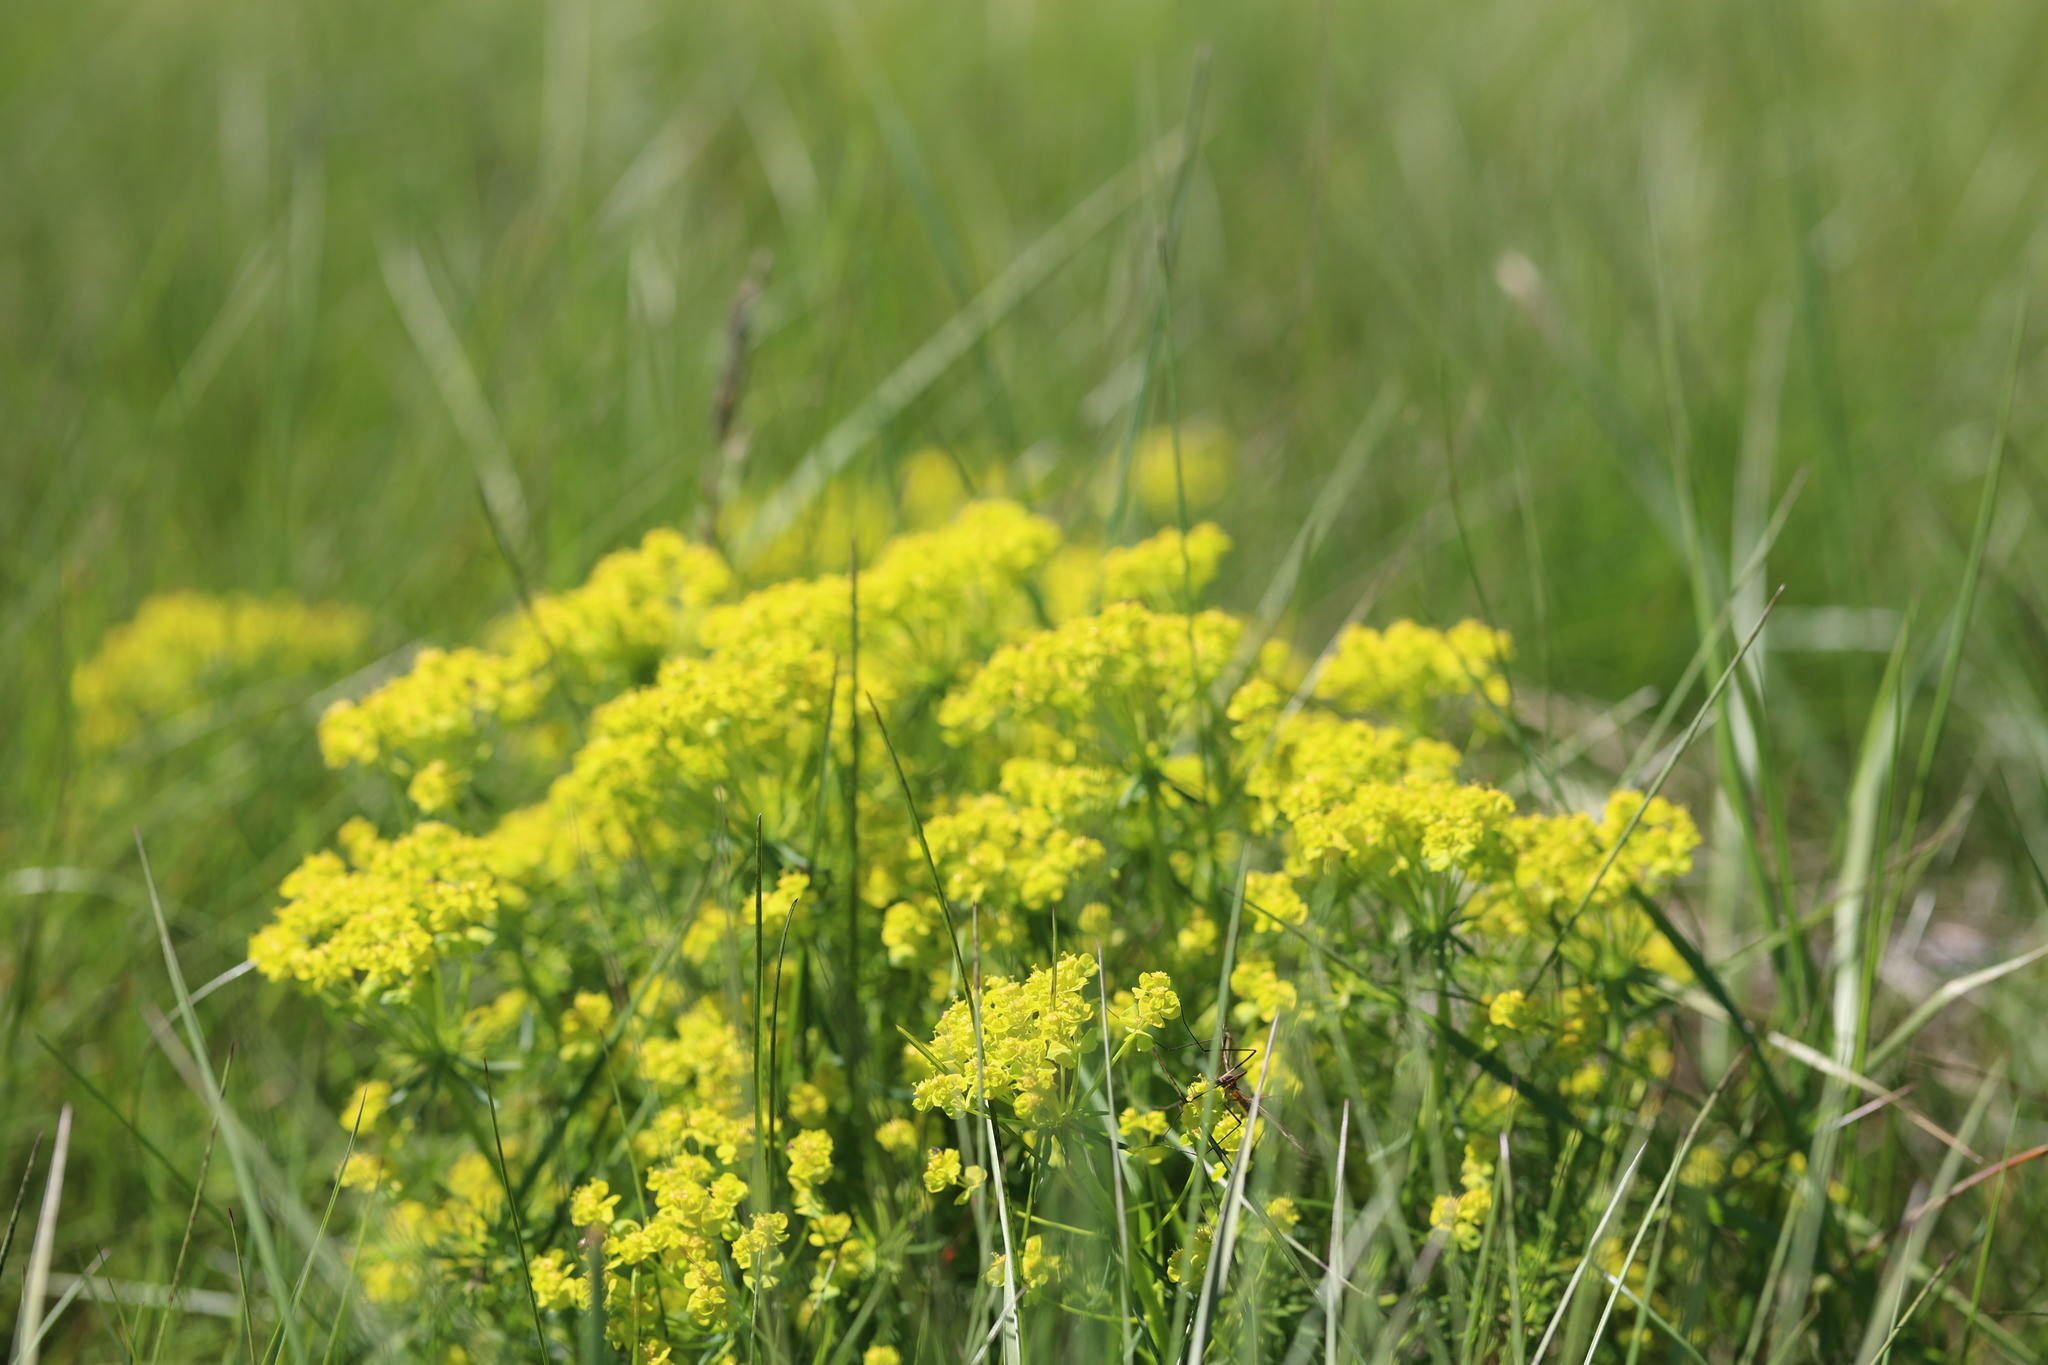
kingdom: Plantae
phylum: Tracheophyta
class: Magnoliopsida
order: Malpighiales
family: Euphorbiaceae
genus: Euphorbia
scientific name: Euphorbia cyparissias
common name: Cypress spurge
